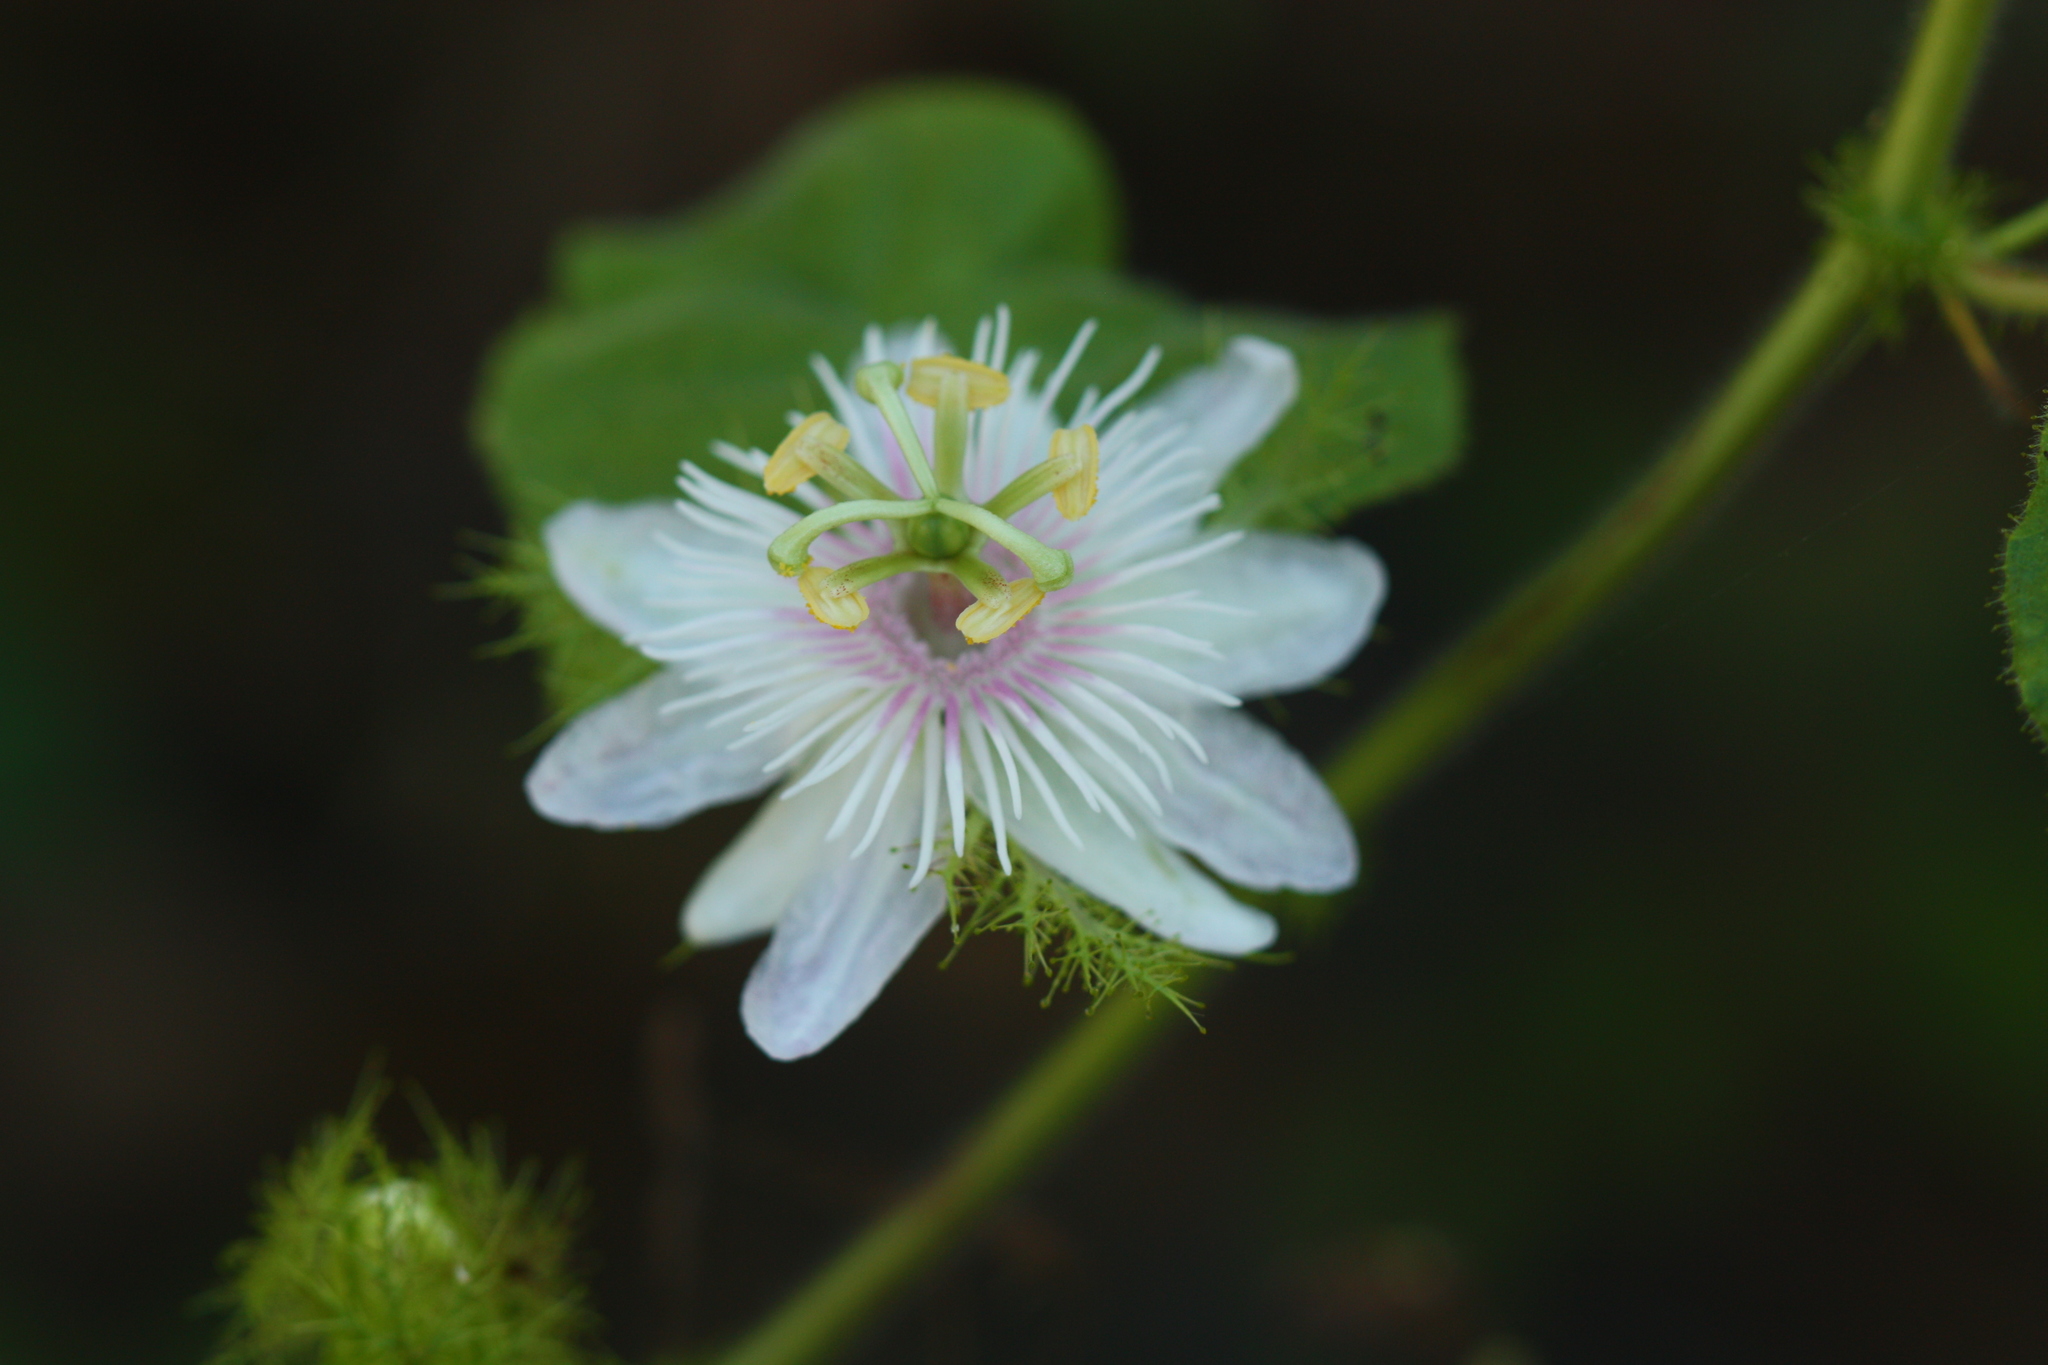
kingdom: Plantae
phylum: Tracheophyta
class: Magnoliopsida
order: Malpighiales
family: Passifloraceae
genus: Passiflora
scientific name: Passiflora foetida
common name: Fetid passionflower
